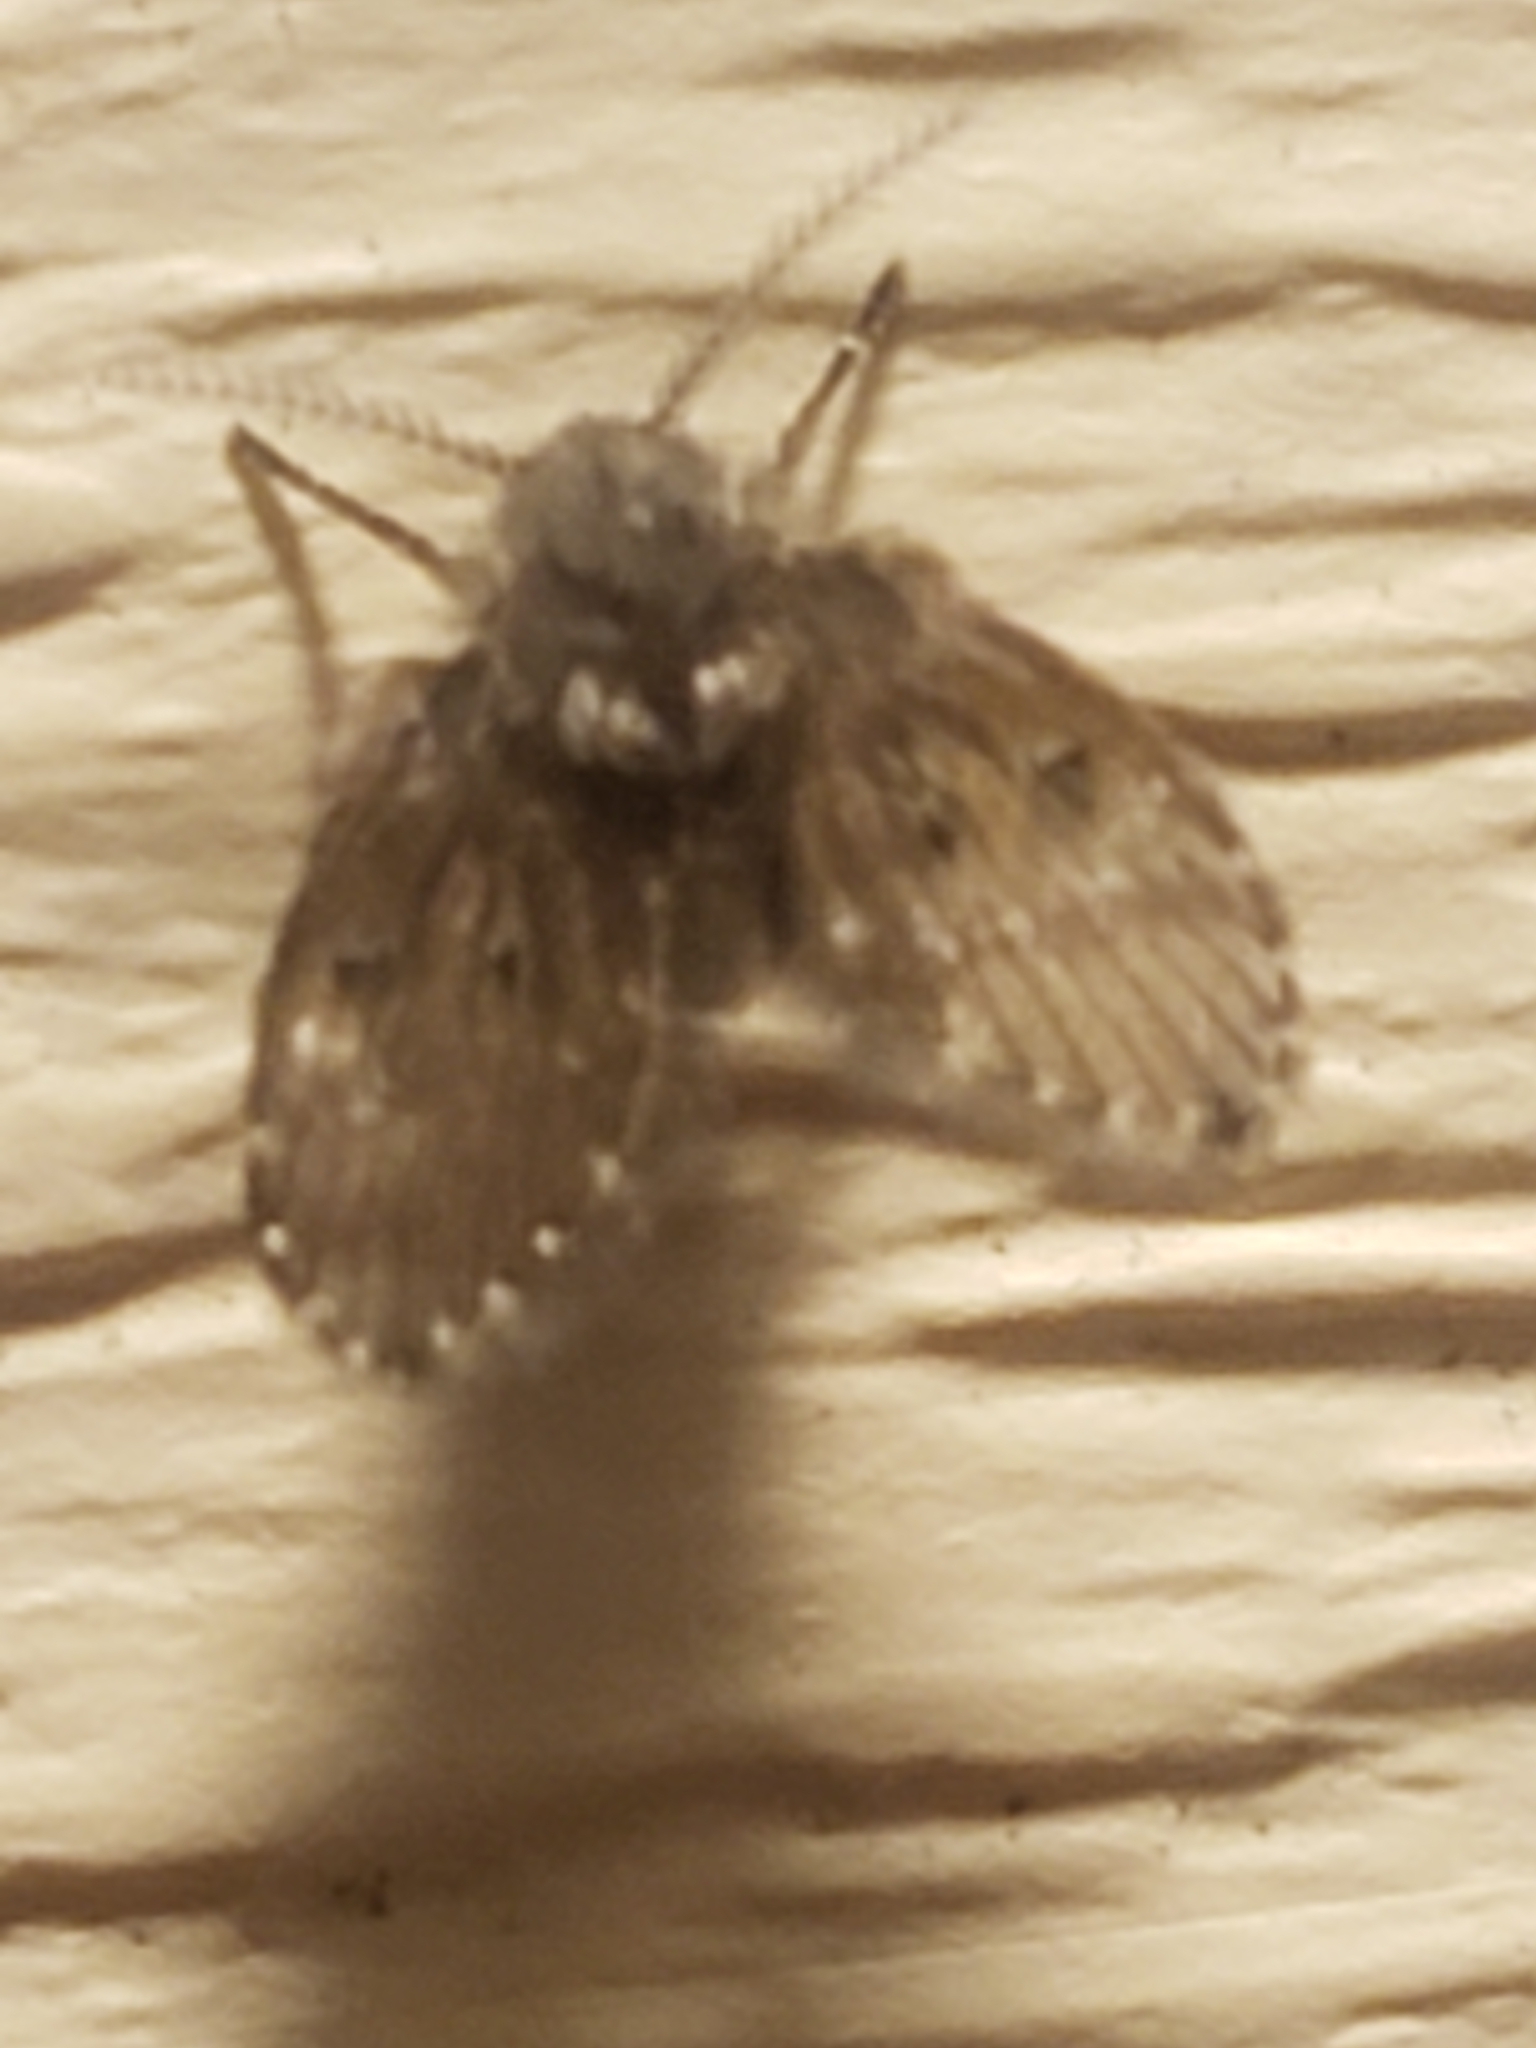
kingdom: Animalia
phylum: Arthropoda
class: Insecta
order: Diptera
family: Psychodidae
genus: Clogmia
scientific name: Clogmia albipunctatus
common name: White-spotted moth fly
